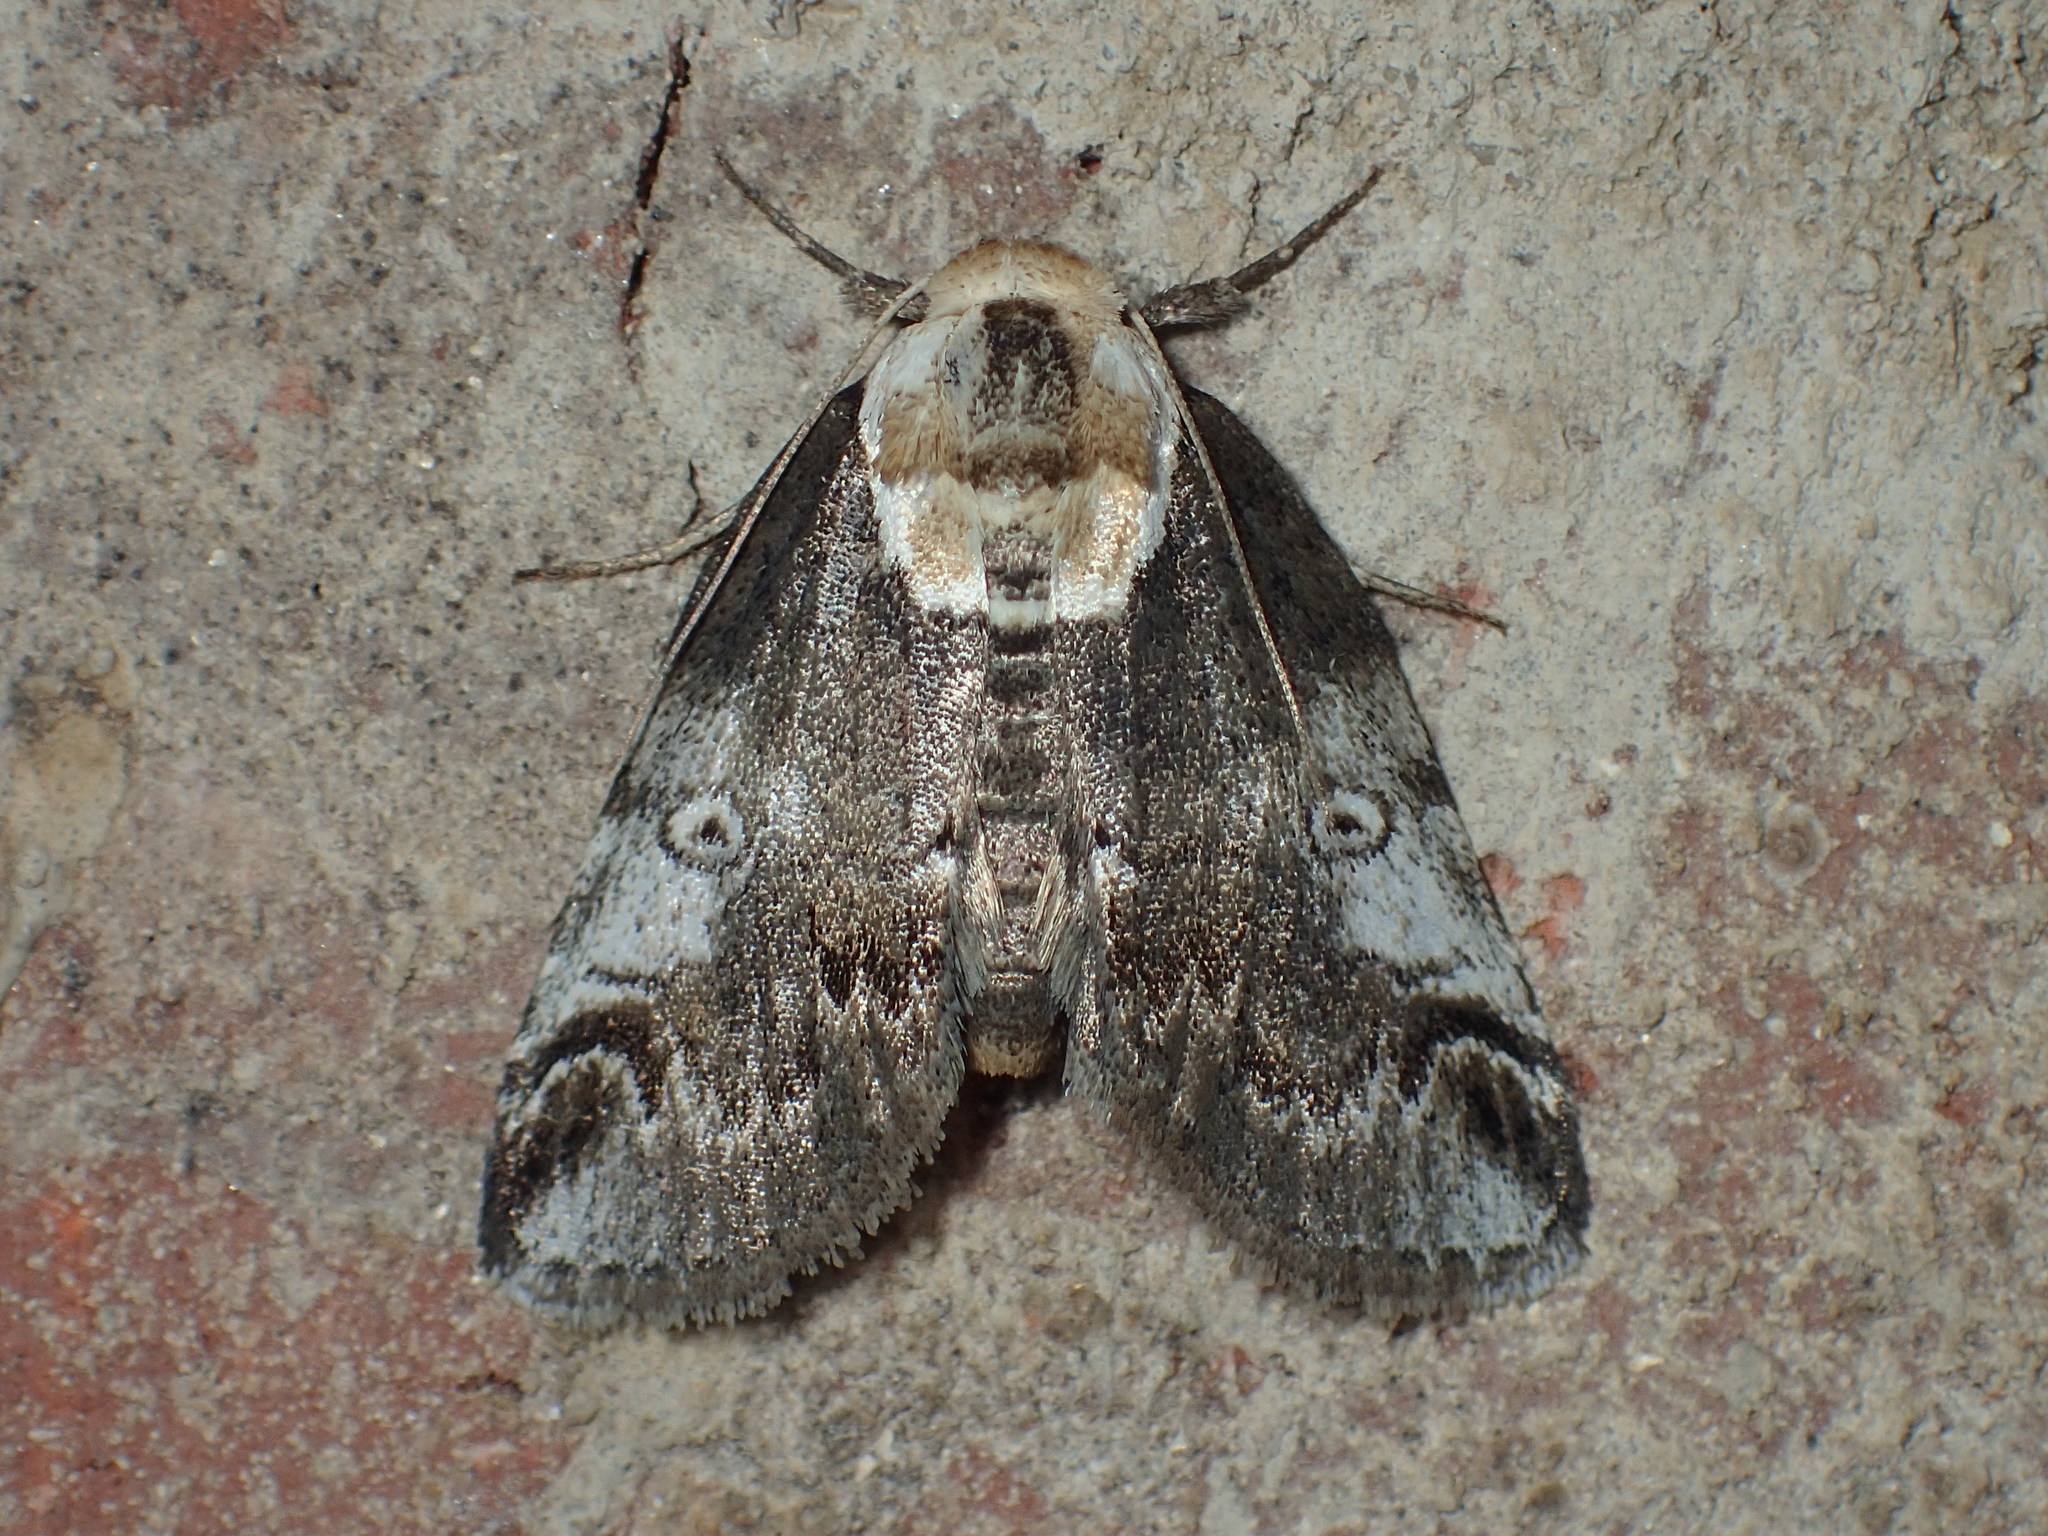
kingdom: Animalia
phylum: Arthropoda
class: Insecta
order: Lepidoptera
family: Nolidae
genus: Baileya
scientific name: Baileya ophthalmica
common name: Eyed baileya moth
